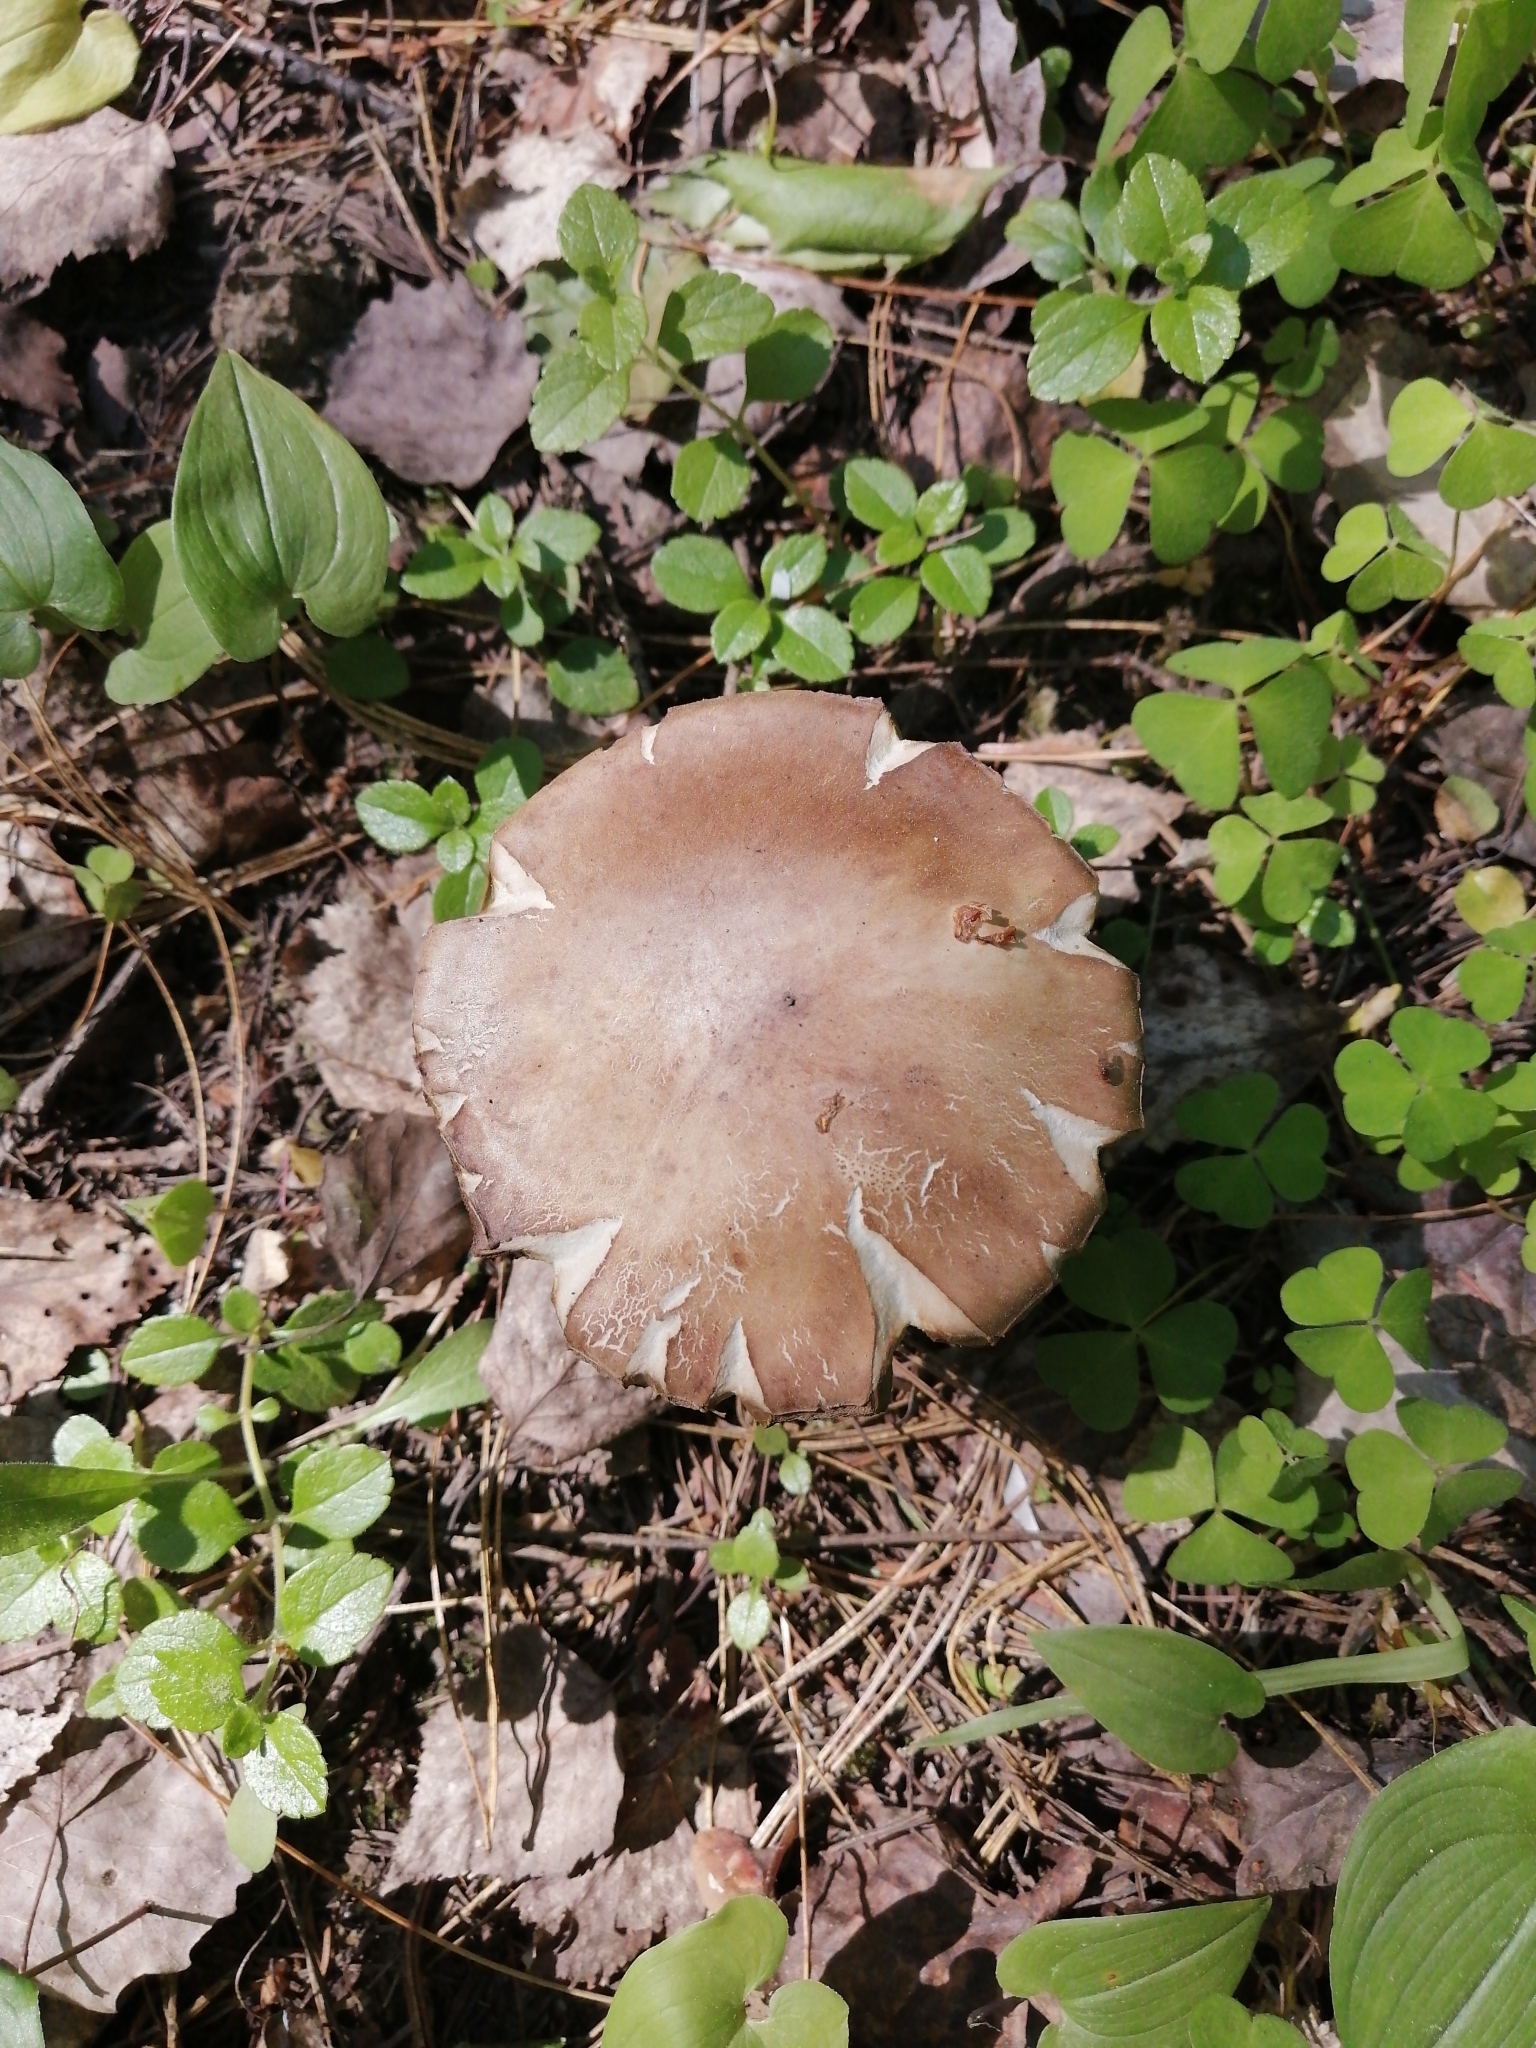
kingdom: Fungi
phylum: Basidiomycota
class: Agaricomycetes
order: Boletales
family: Boletaceae
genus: Leccinum
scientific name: Leccinum scabrum
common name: Blushing bolete
